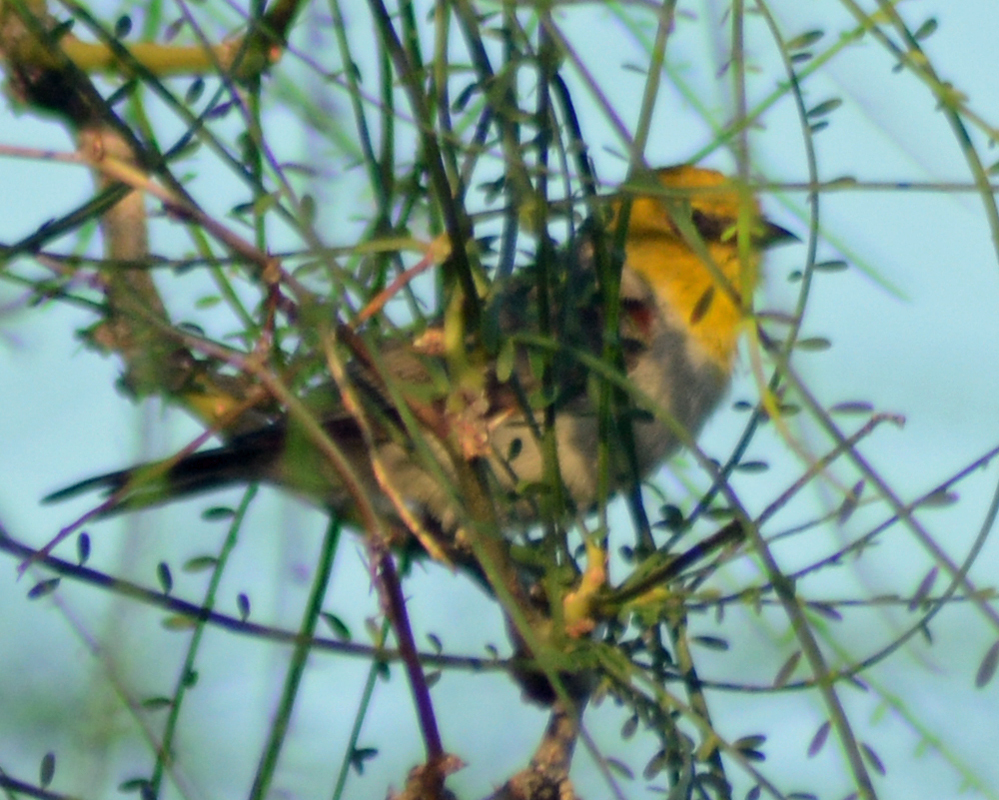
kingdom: Animalia
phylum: Chordata
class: Aves
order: Passeriformes
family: Remizidae
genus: Auriparus
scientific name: Auriparus flaviceps
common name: Verdin
